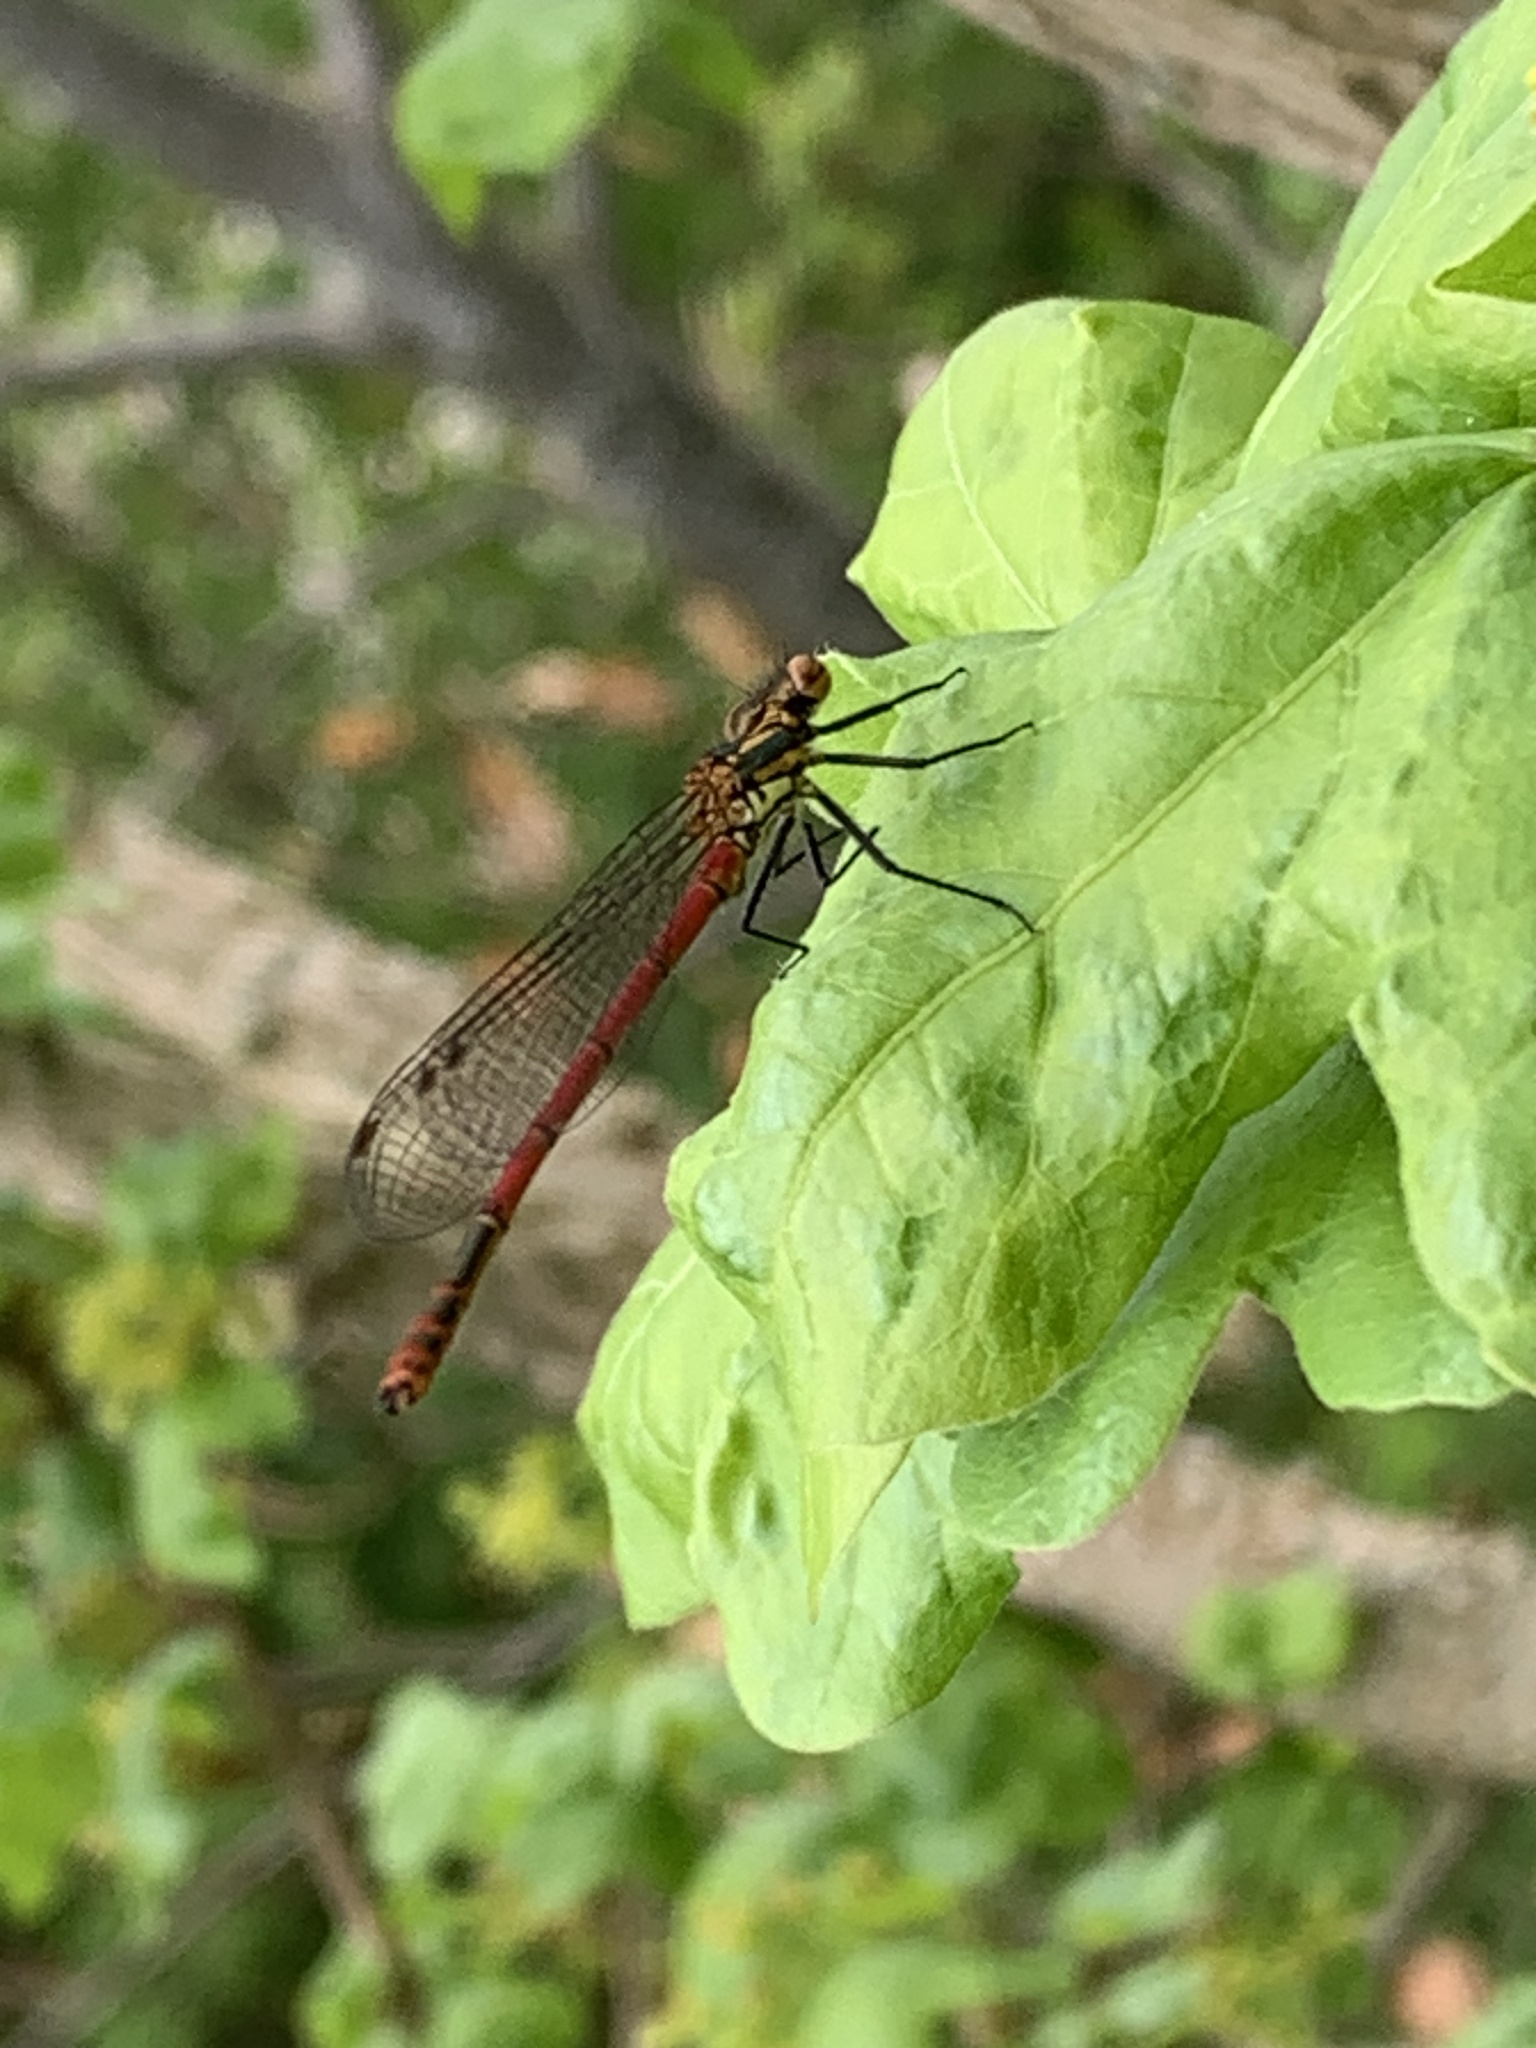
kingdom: Animalia
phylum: Arthropoda
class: Insecta
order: Odonata
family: Coenagrionidae
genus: Pyrrhosoma
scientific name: Pyrrhosoma nymphula
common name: Large red damsel
